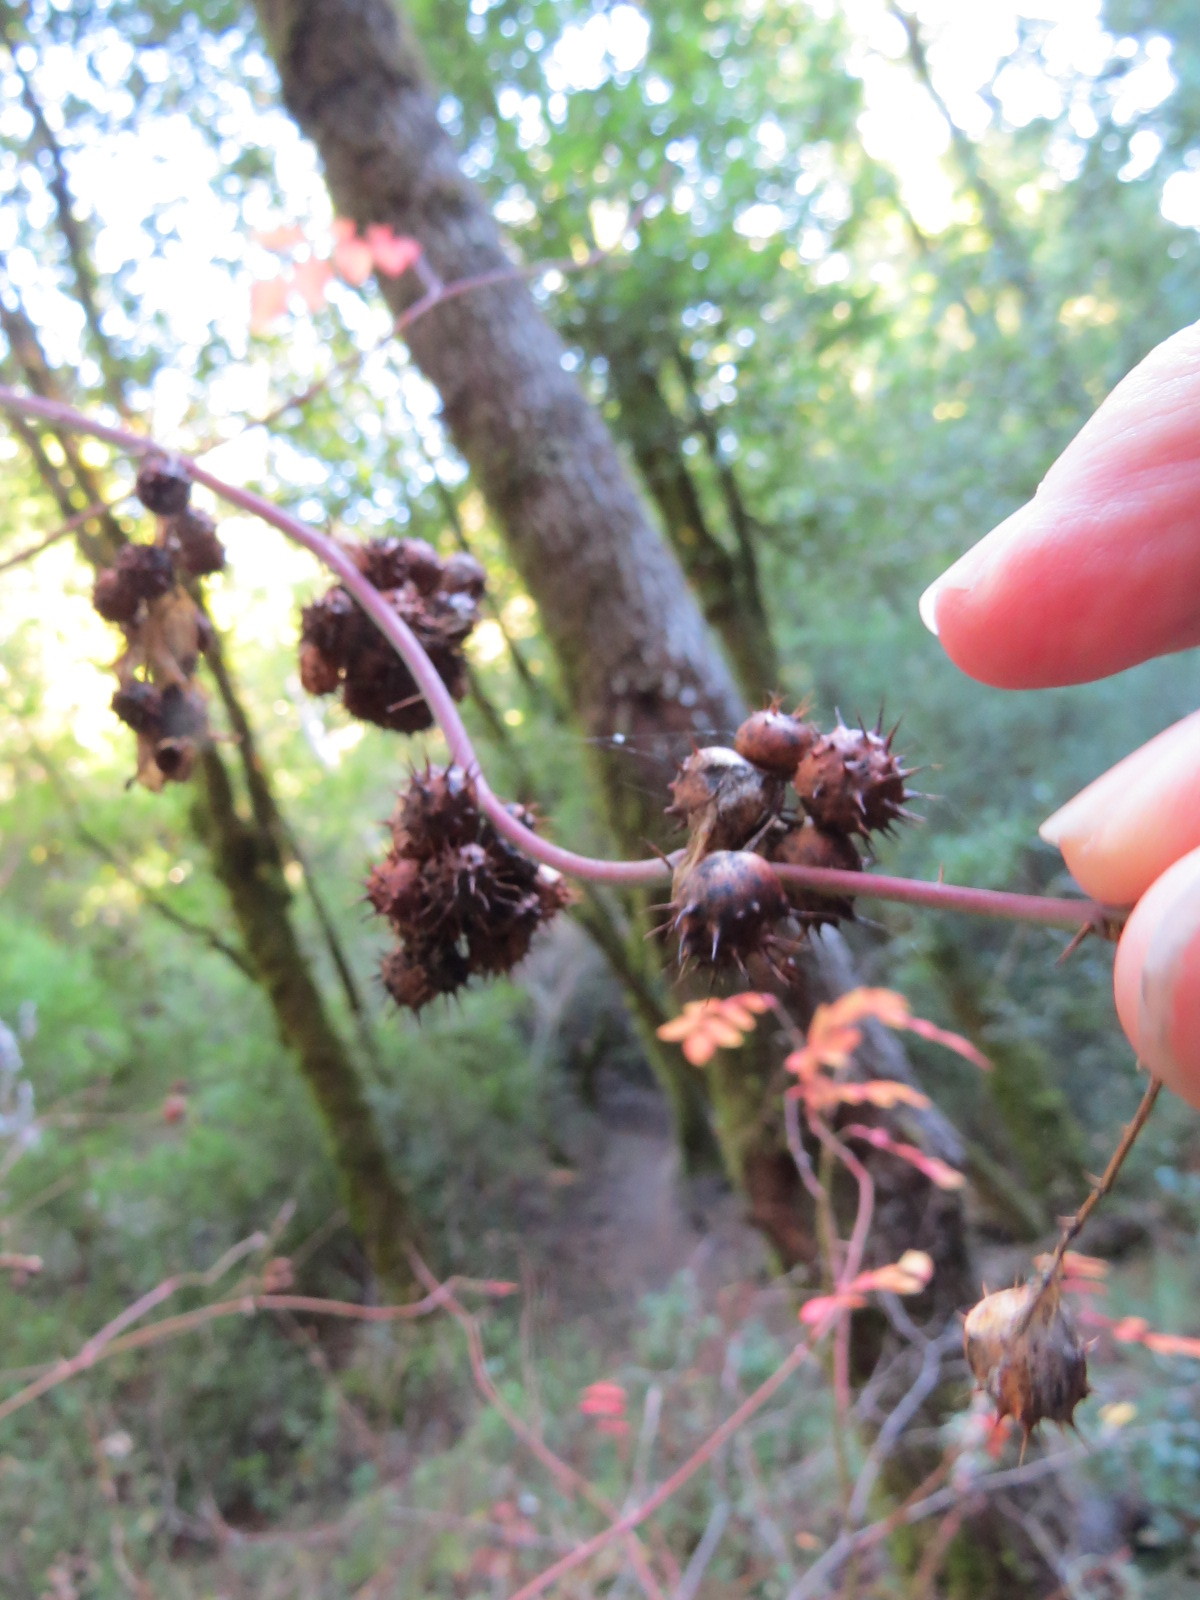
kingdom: Animalia
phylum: Arthropoda
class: Insecta
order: Hymenoptera
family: Cynipidae
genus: Diplolepis
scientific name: Diplolepis bicolor
